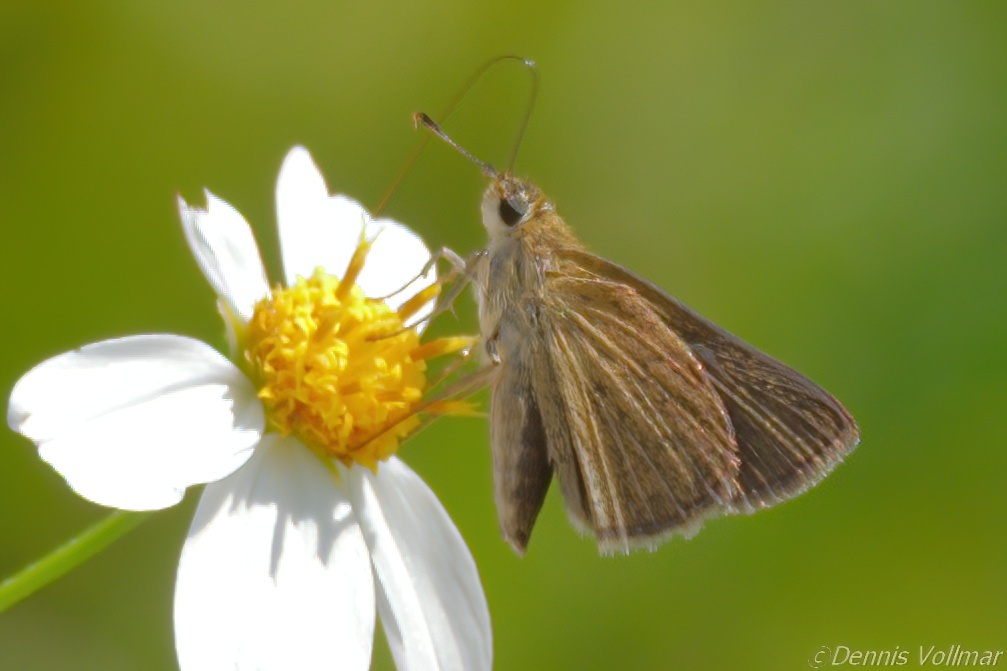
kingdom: Animalia
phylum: Arthropoda
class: Insecta
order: Lepidoptera
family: Hesperiidae
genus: Nastra
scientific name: Nastra lherminier
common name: Swarthy skipper
